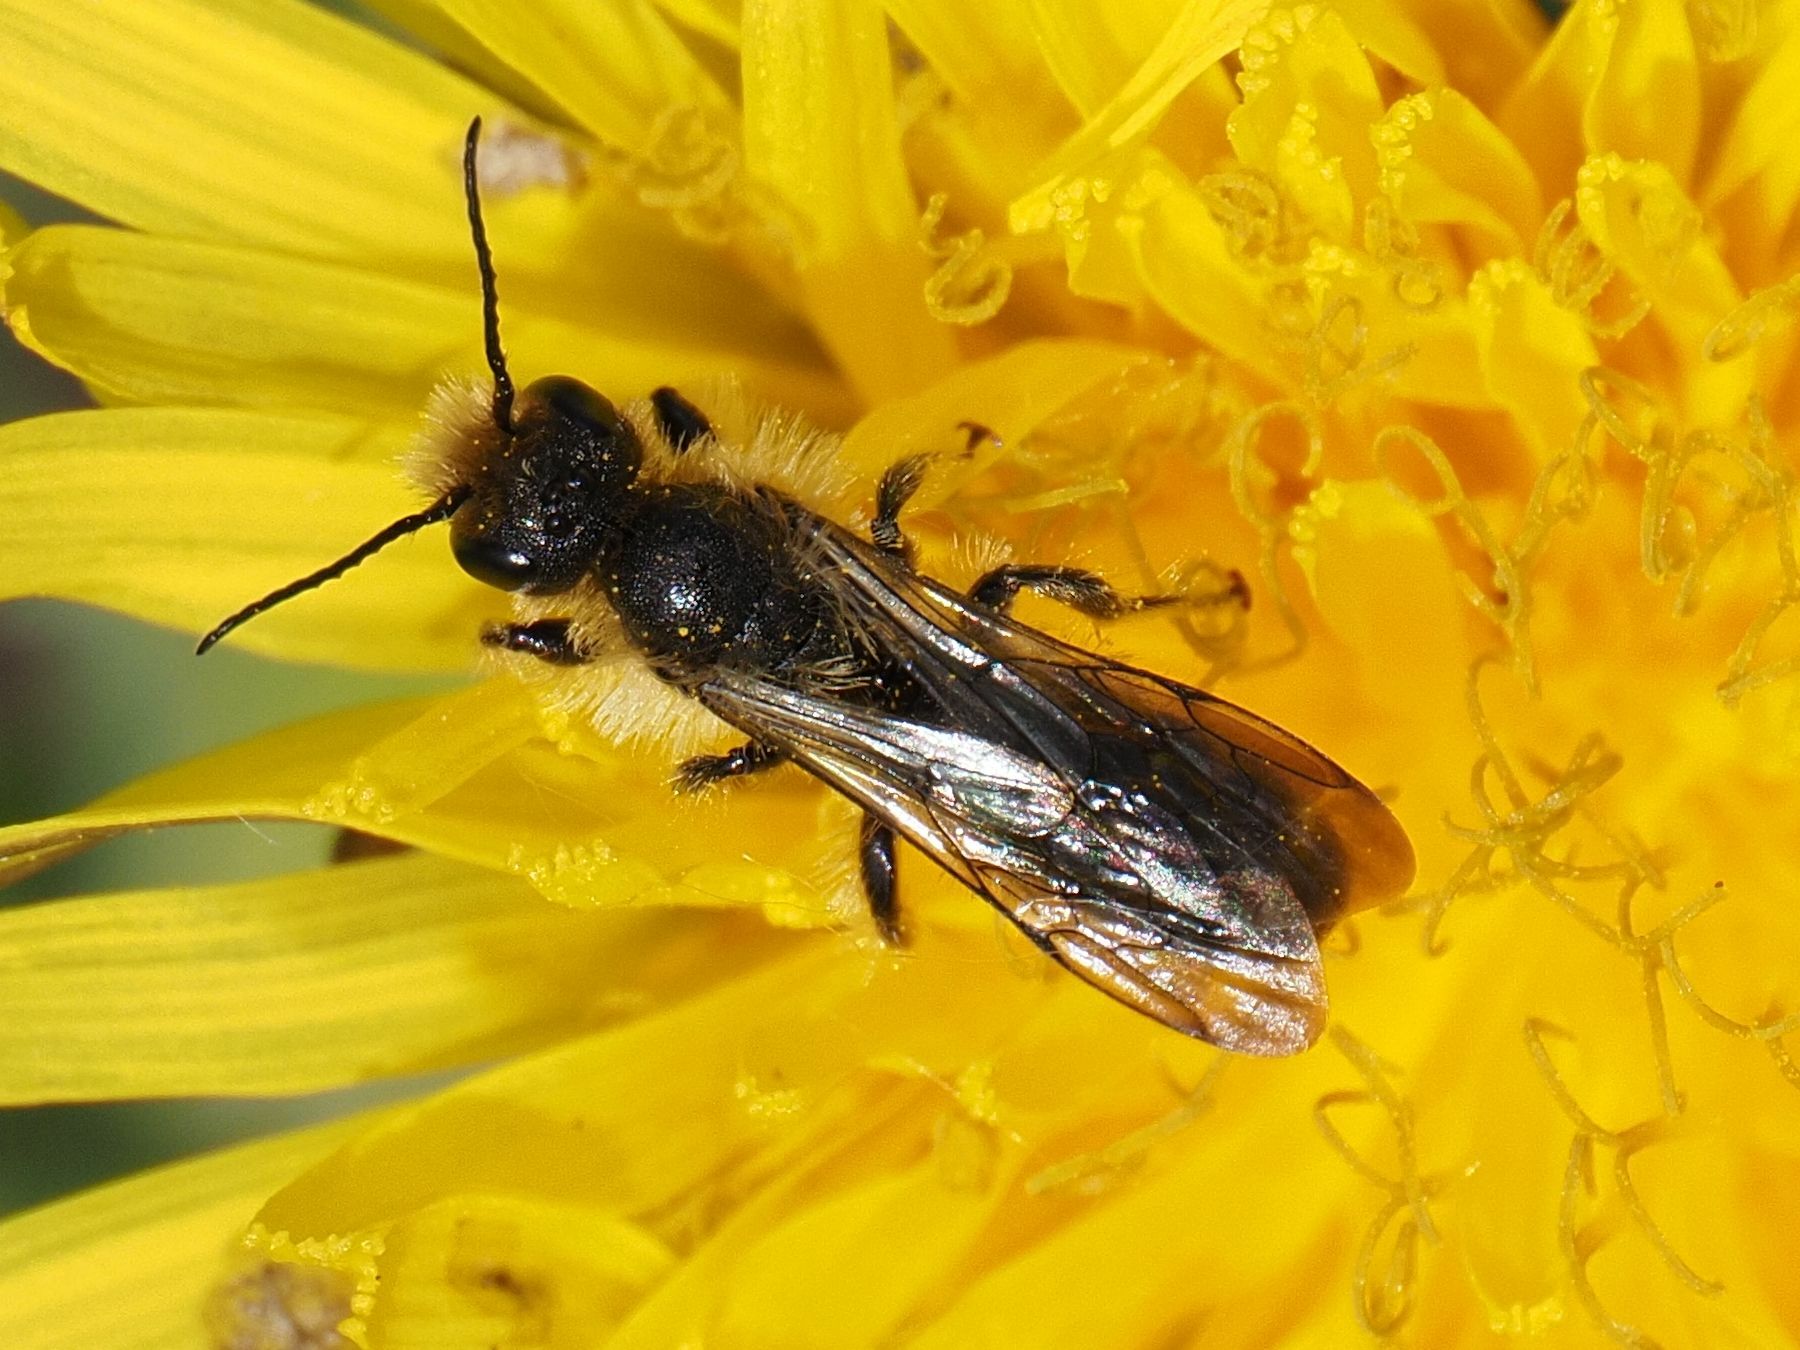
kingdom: Animalia
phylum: Arthropoda
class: Insecta
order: Hymenoptera
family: Megachilidae
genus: Chelostoma
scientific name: Chelostoma florisomne
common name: Sleepy carpenter bee
